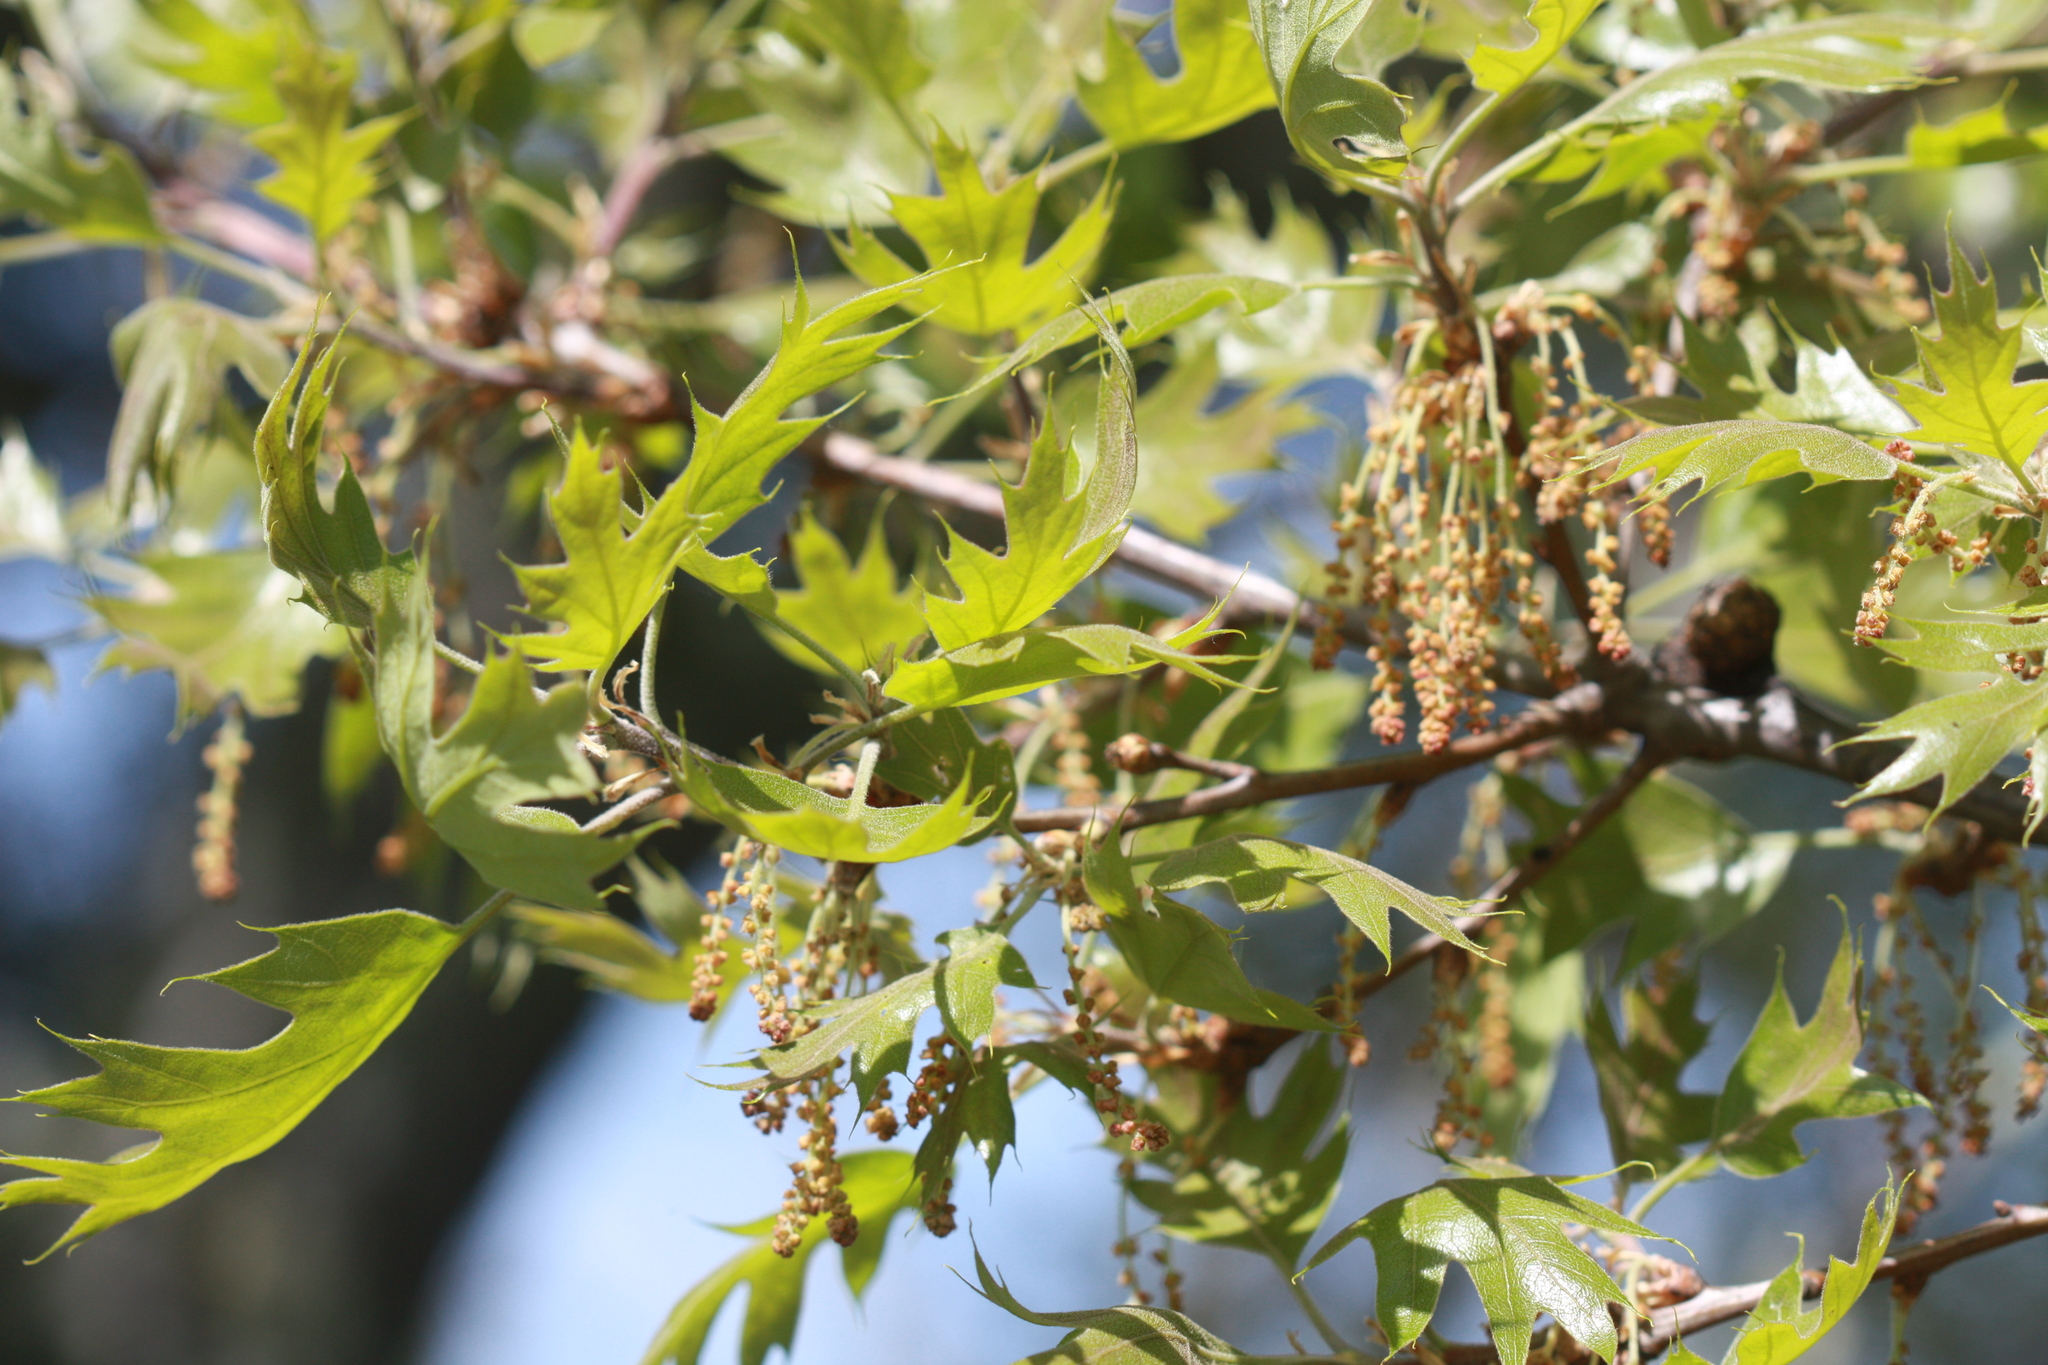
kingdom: Plantae
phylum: Tracheophyta
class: Magnoliopsida
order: Fagales
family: Fagaceae
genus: Quercus
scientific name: Quercus kelloggii
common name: California black oak
